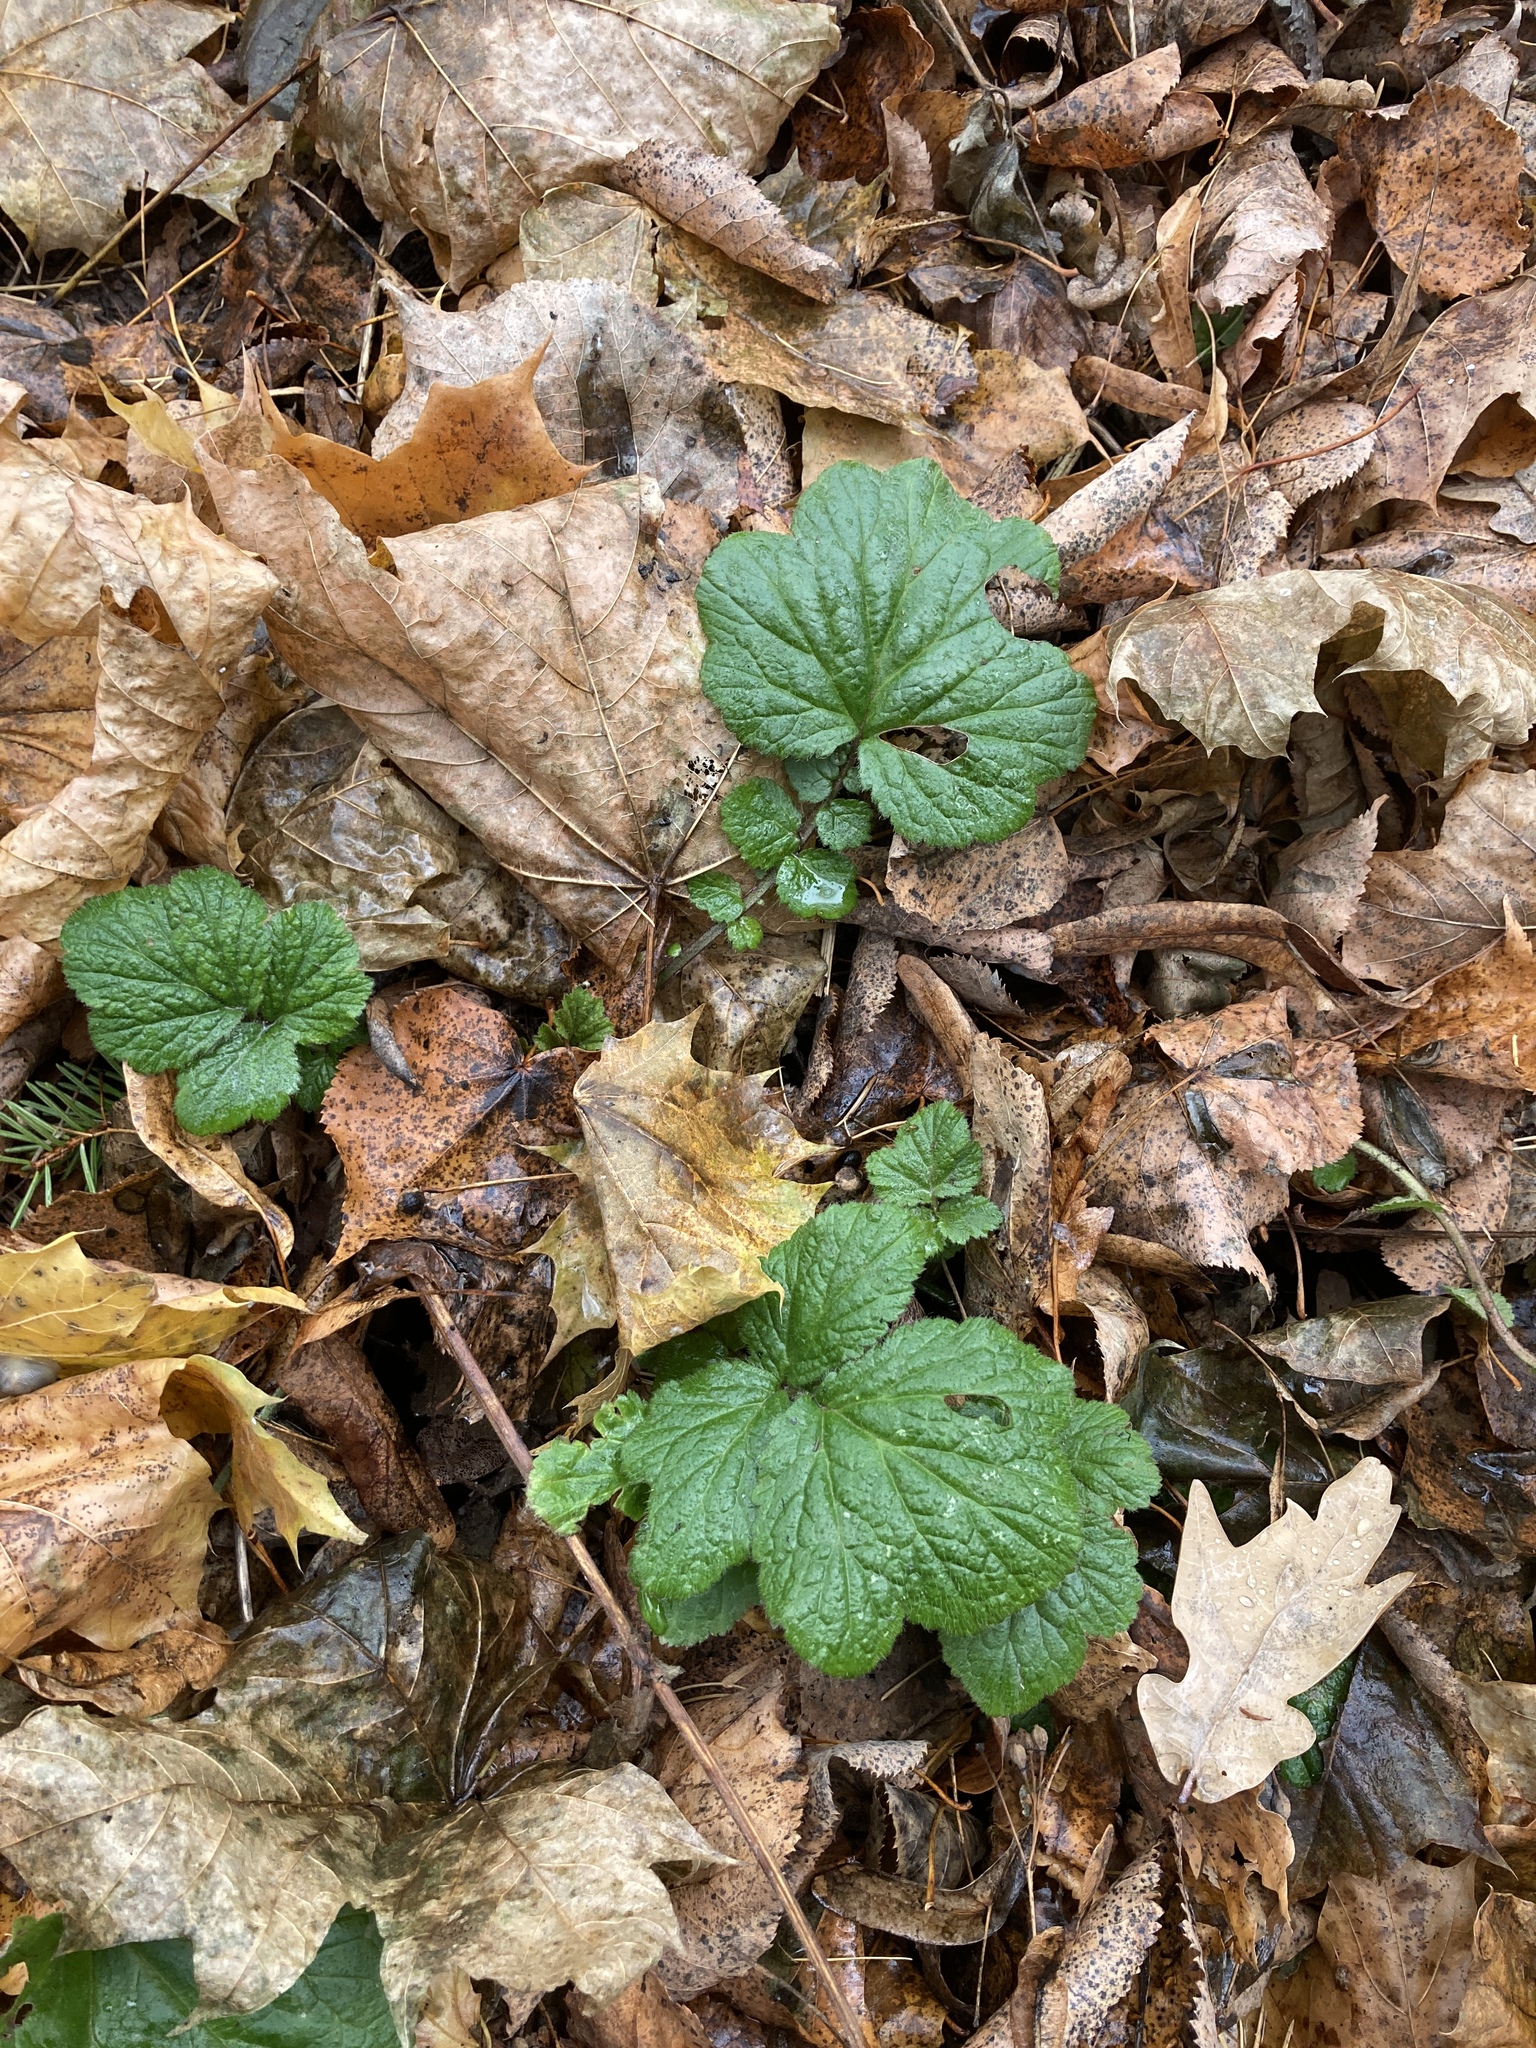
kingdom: Plantae
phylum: Tracheophyta
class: Magnoliopsida
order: Rosales
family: Rosaceae
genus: Geum
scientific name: Geum
